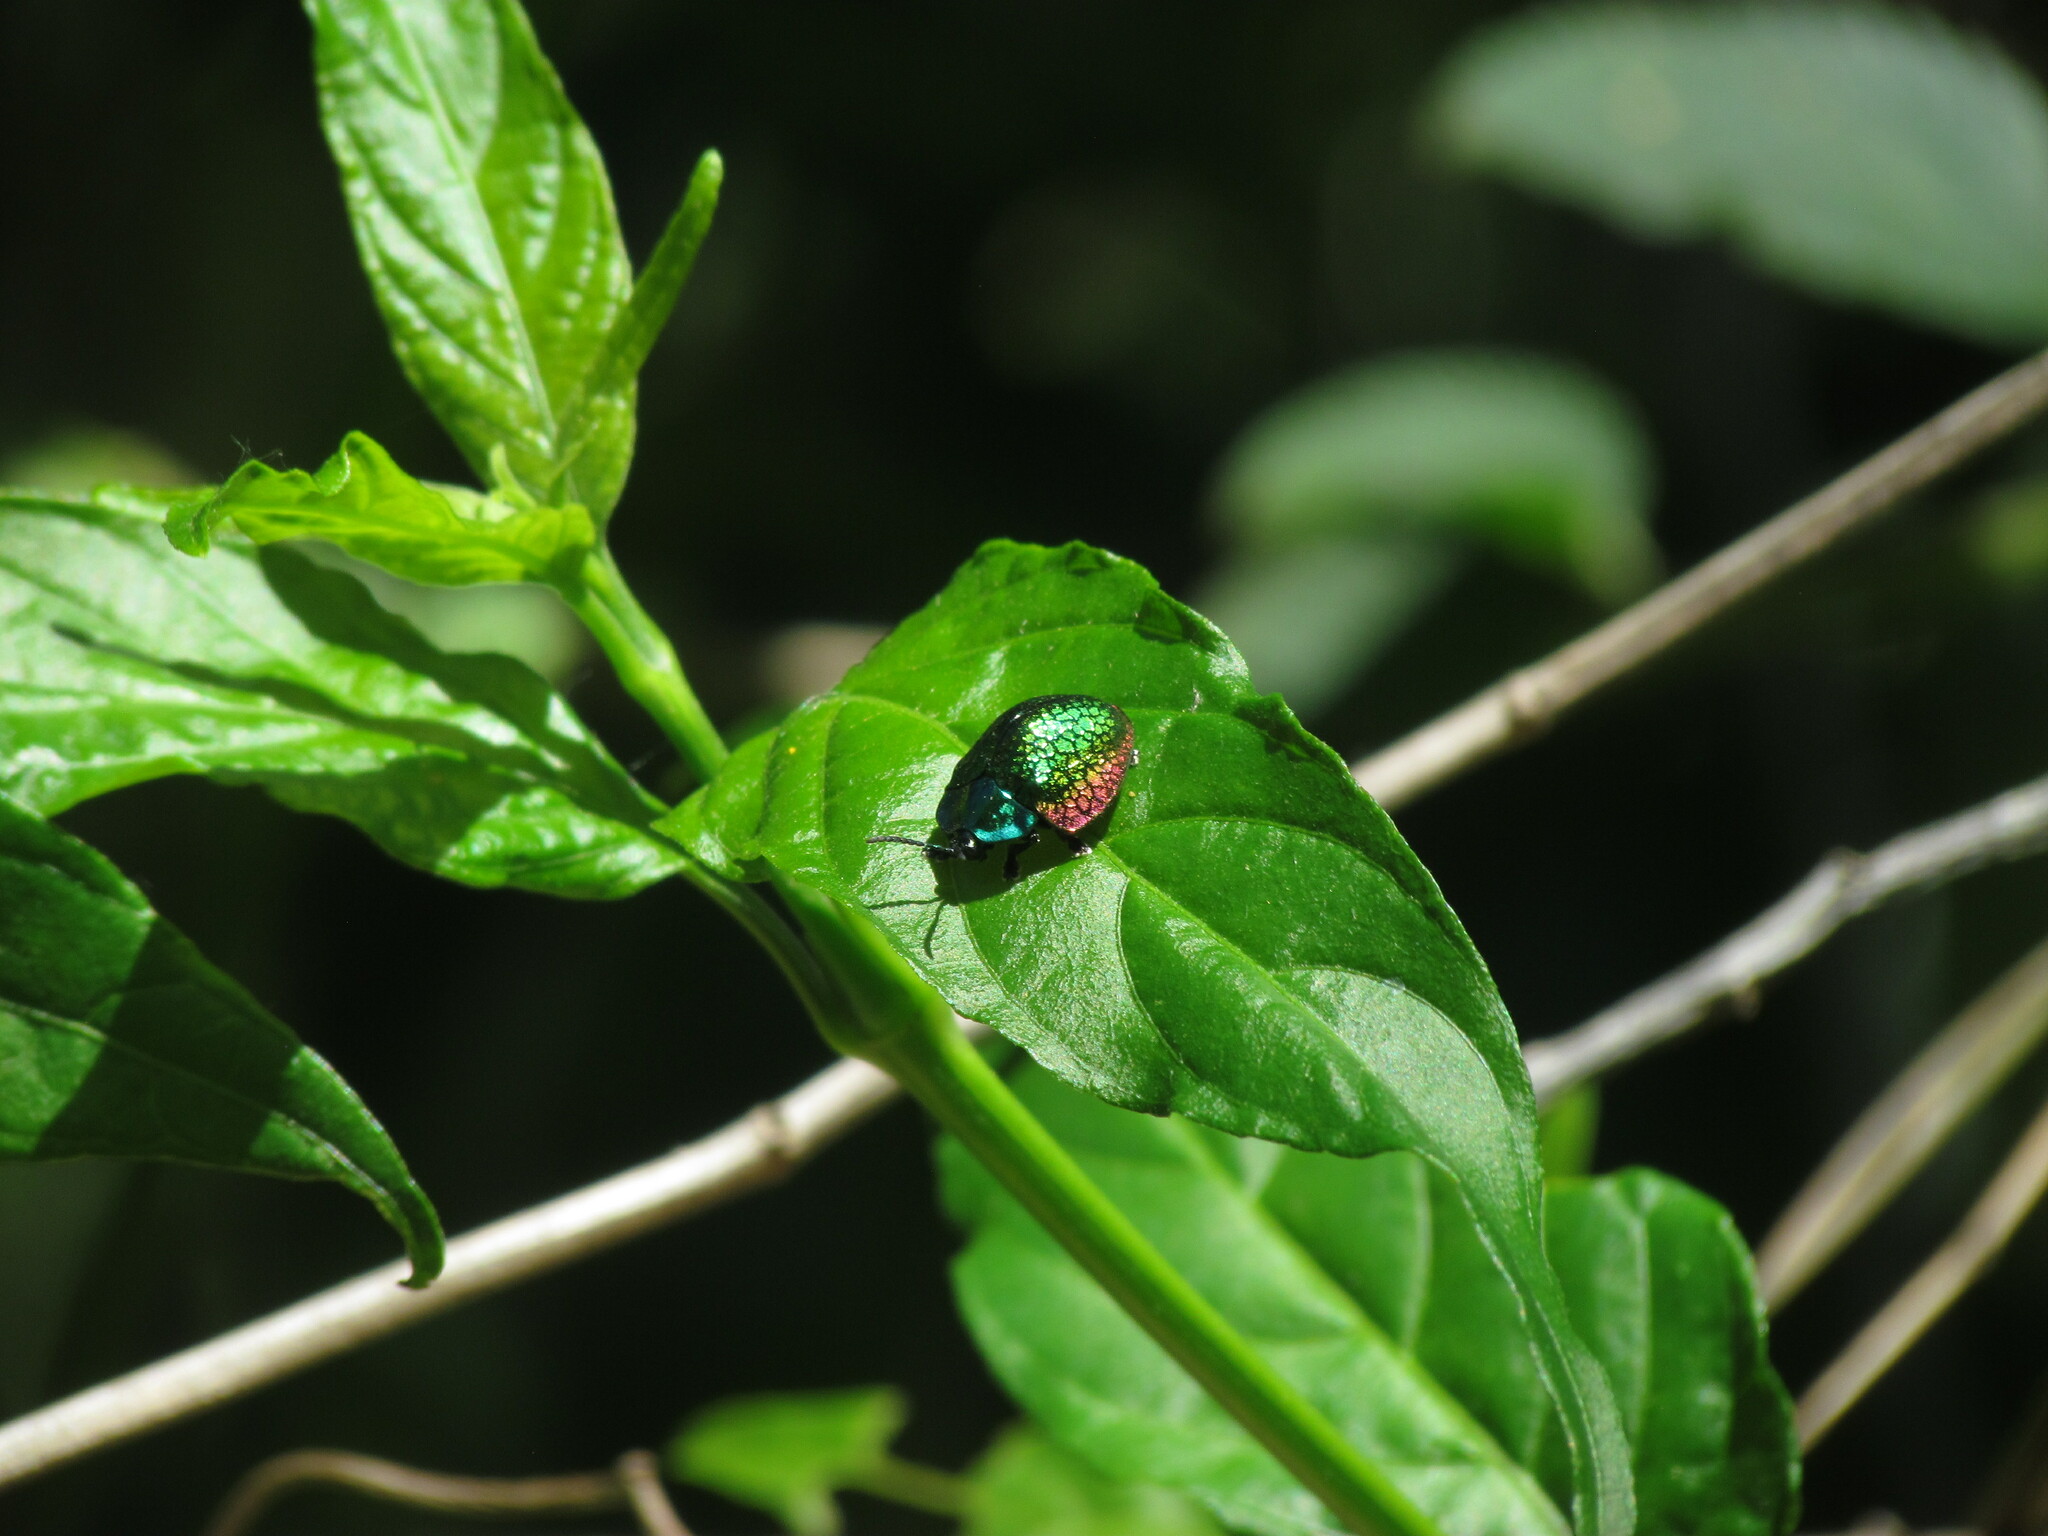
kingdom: Animalia
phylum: Arthropoda
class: Insecta
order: Coleoptera
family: Chrysomelidae
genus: Stolas
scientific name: Stolas festiva
